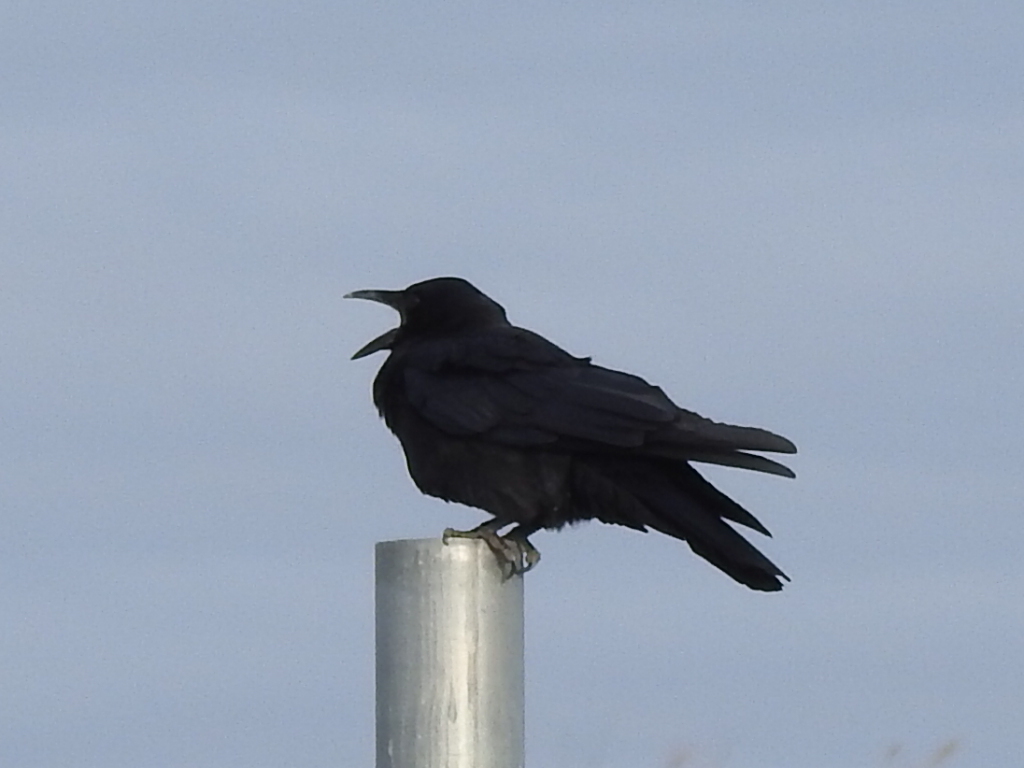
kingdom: Animalia
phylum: Chordata
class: Aves
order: Passeriformes
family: Corvidae
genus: Corvus
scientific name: Corvus brachyrhynchos
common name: American crow
